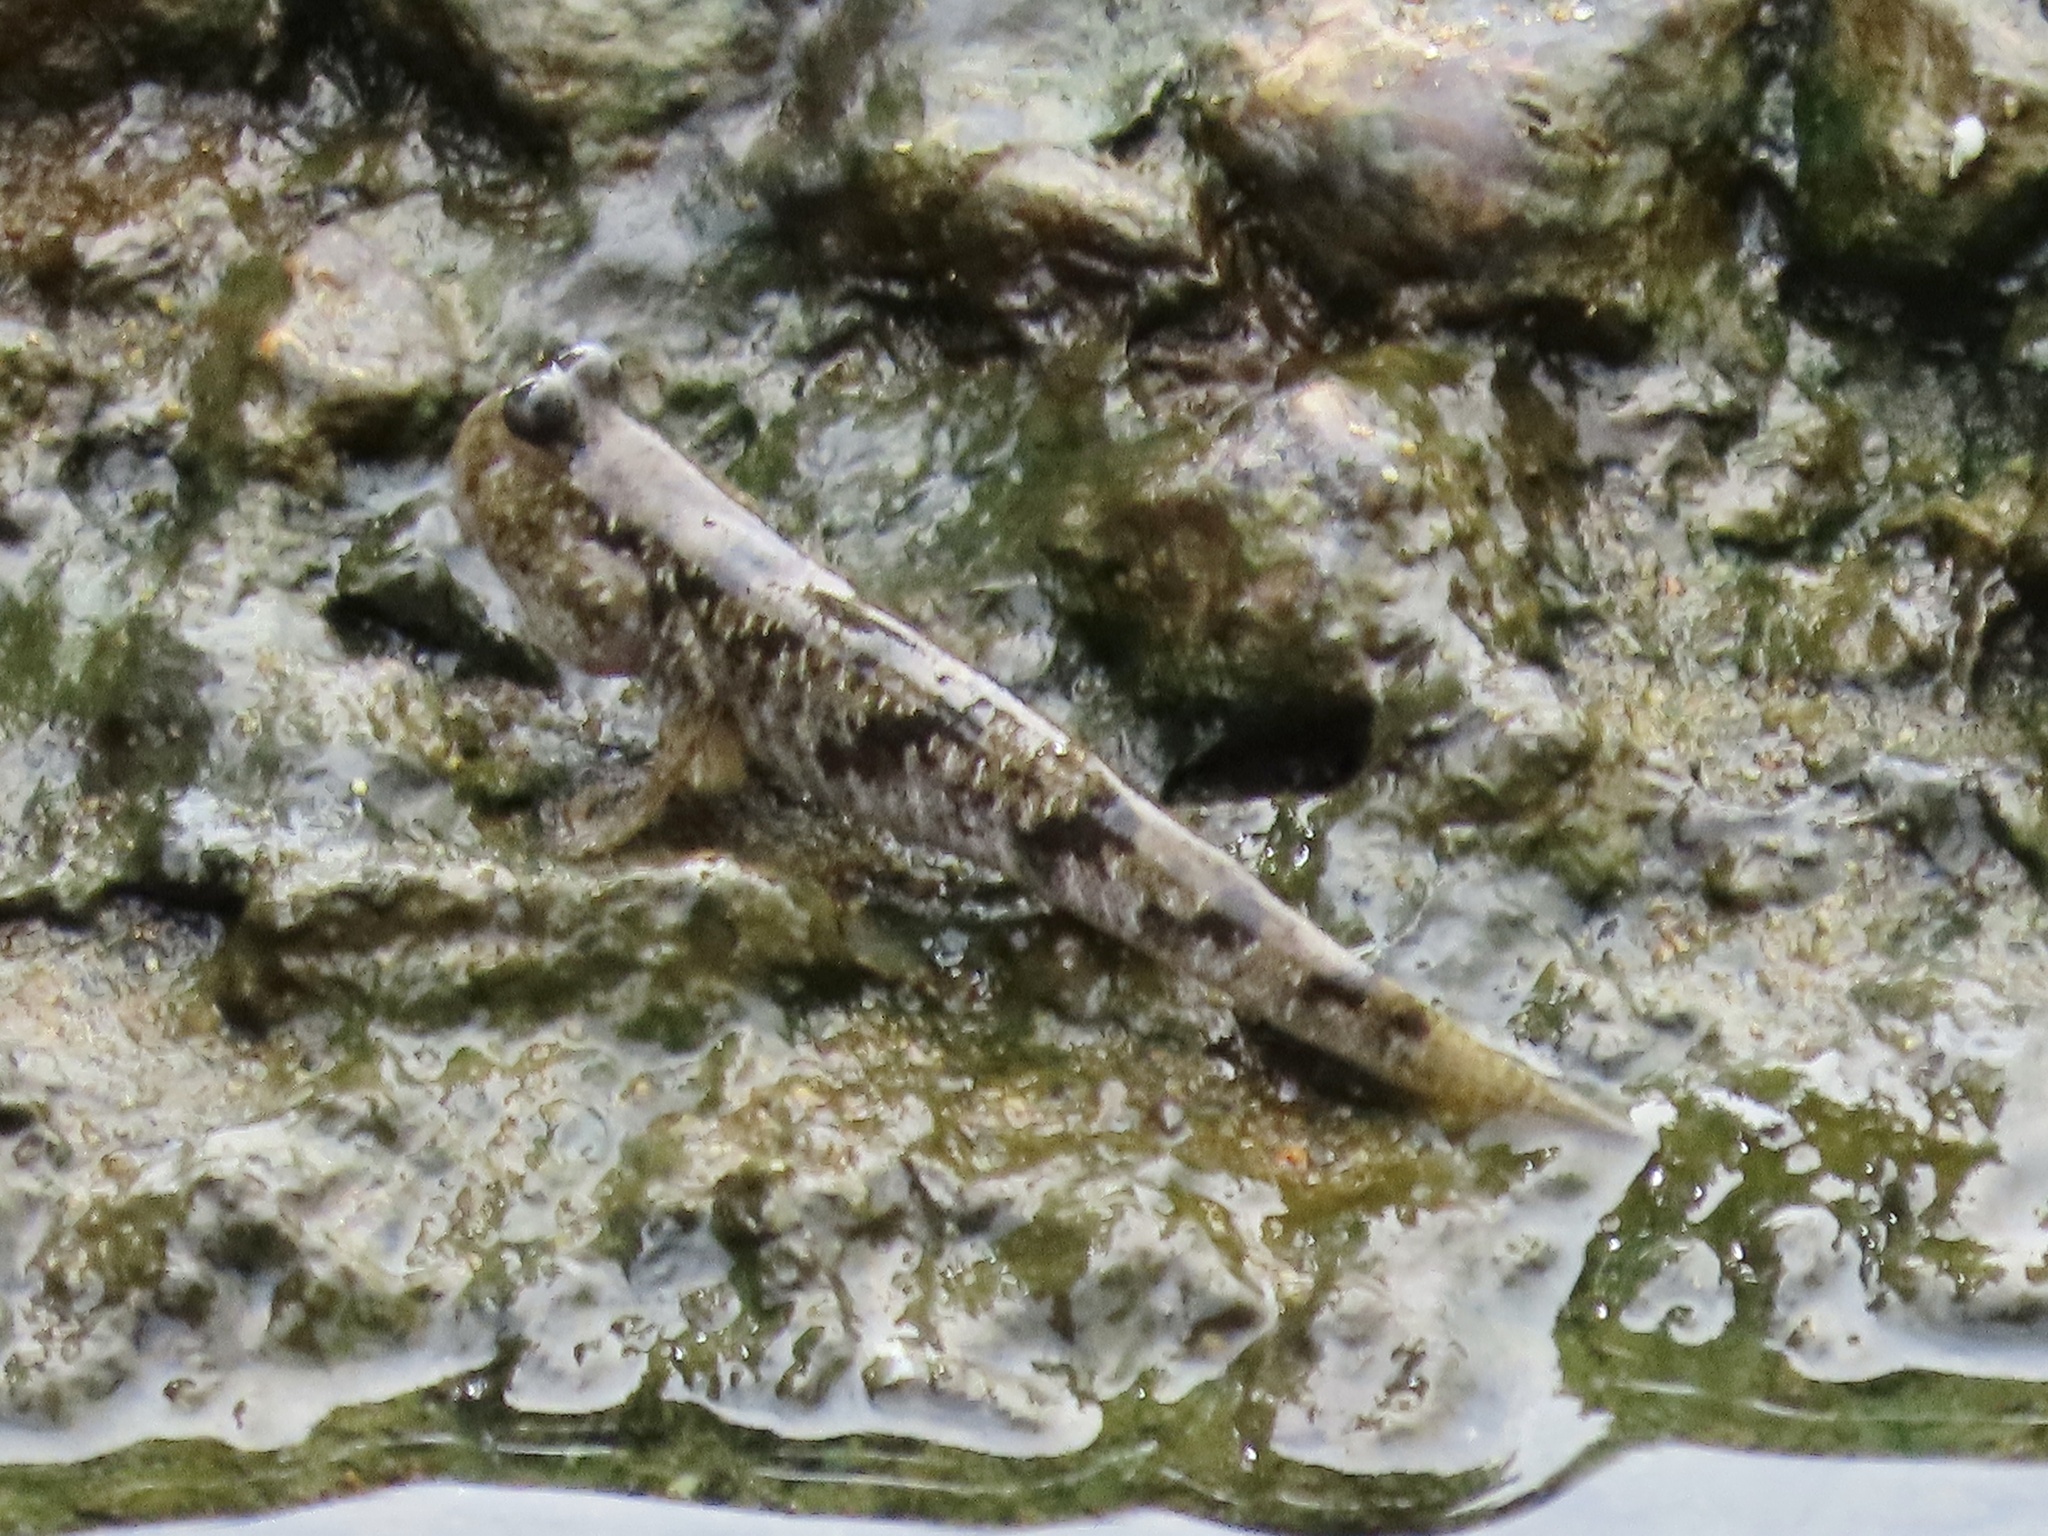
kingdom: Animalia
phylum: Chordata
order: Perciformes
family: Gobiidae
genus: Periophthalmus
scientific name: Periophthalmus modestus
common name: Black goby
